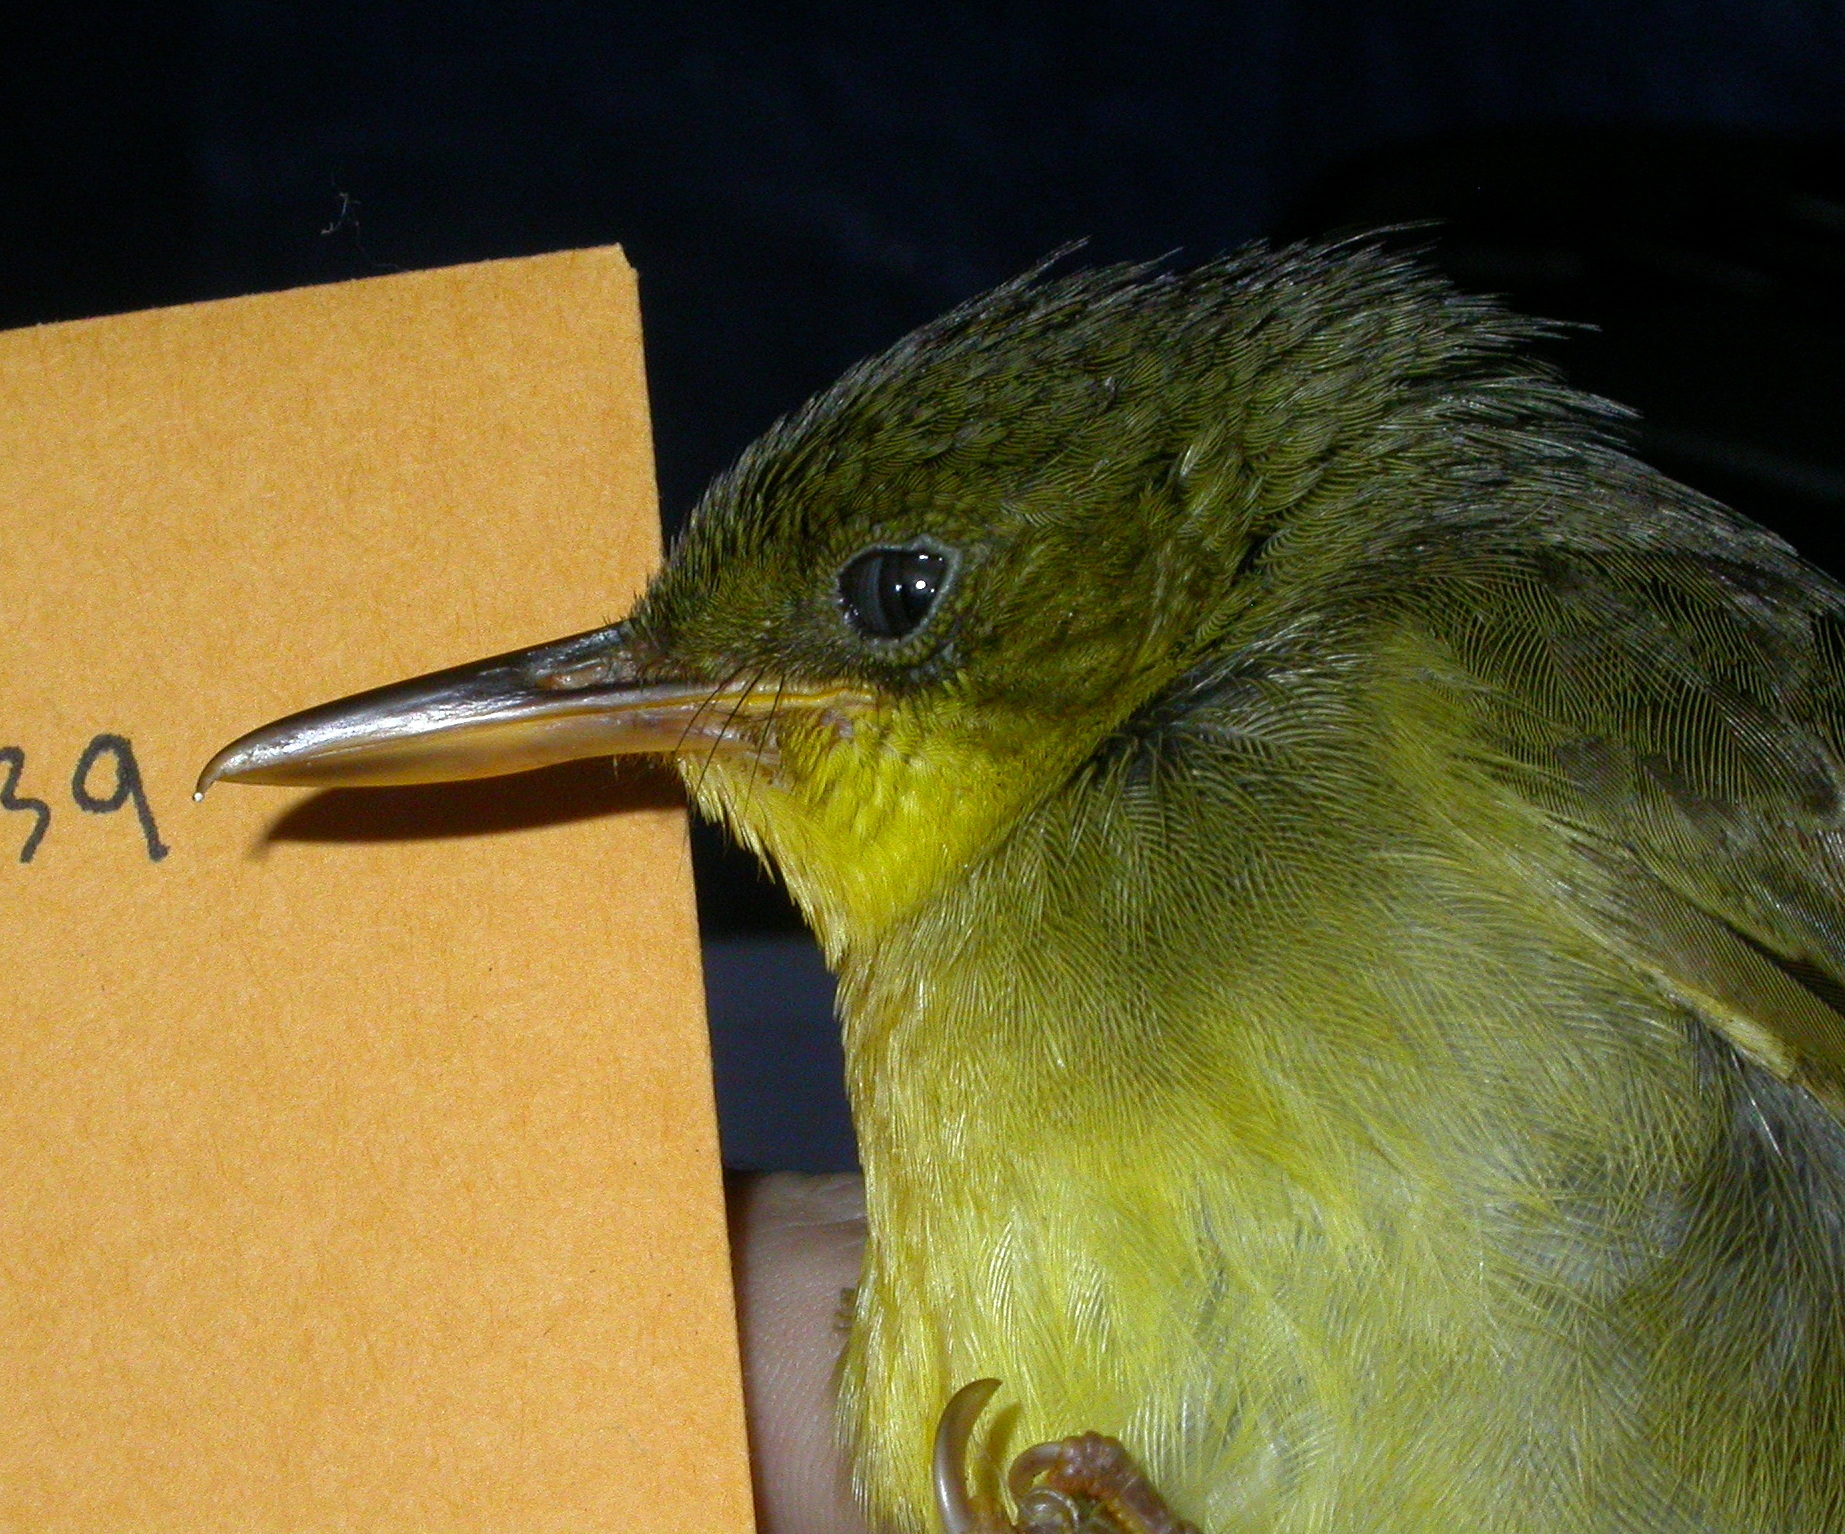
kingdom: Animalia
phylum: Chordata
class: Aves
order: Passeriformes
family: Bernieridae
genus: Bernieria
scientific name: Bernieria madagascariensis
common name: Long-billed bernieria
